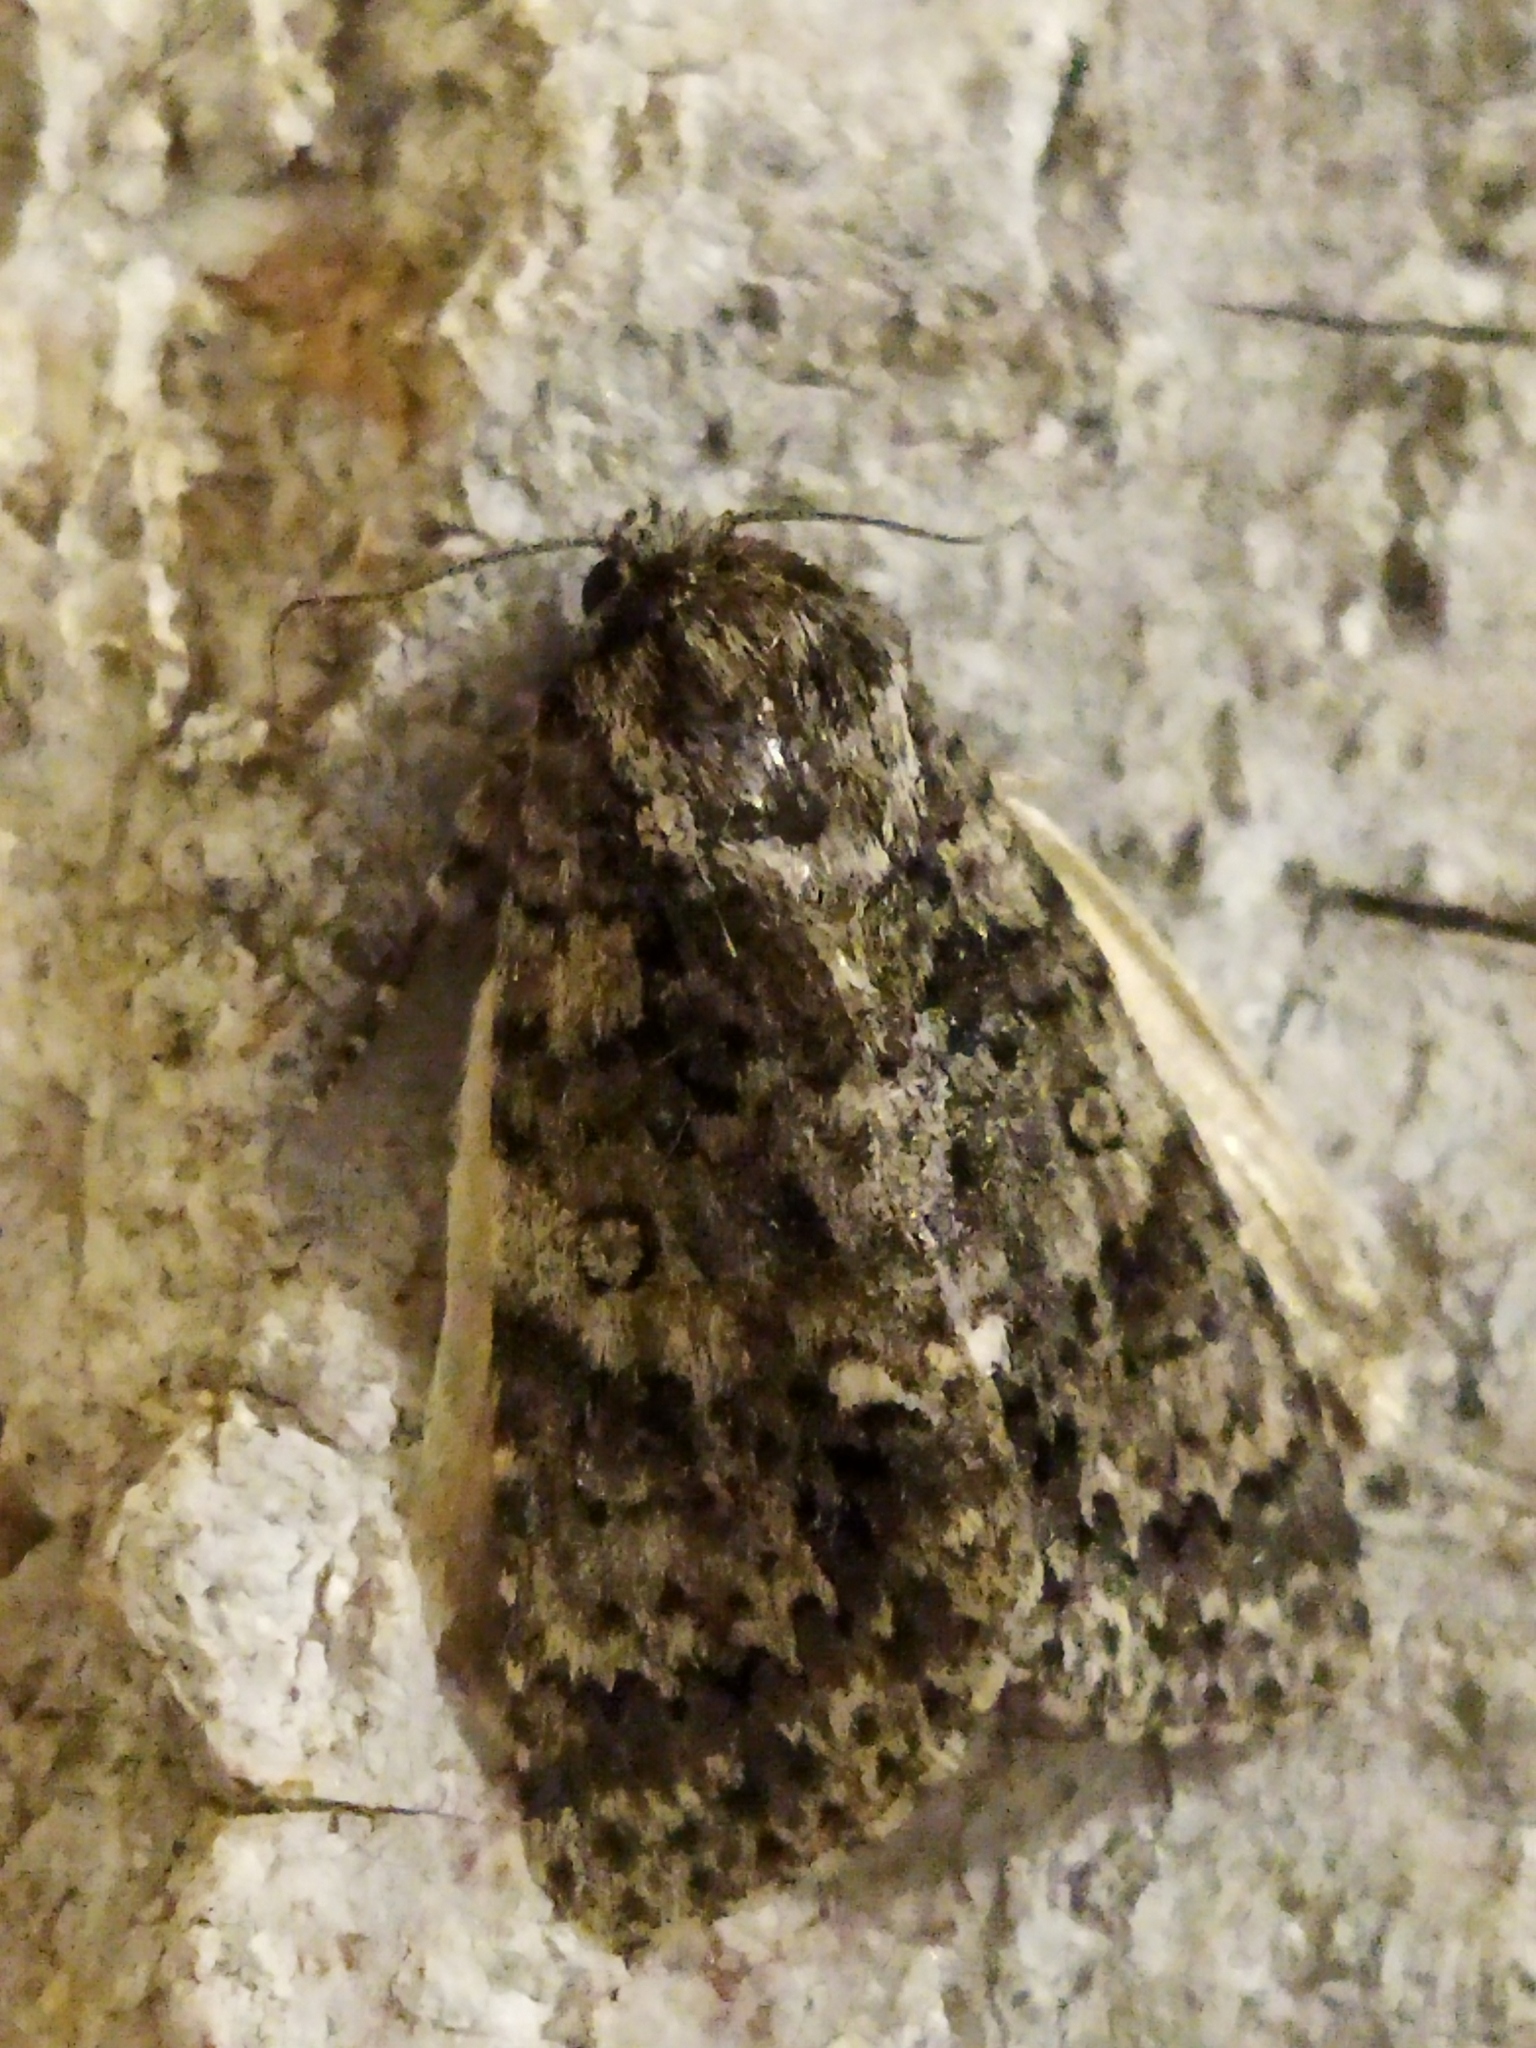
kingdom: Animalia
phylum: Arthropoda
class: Insecta
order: Lepidoptera
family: Noctuidae
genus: Acronicta
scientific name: Acronicta rumicis
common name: Knot grass
